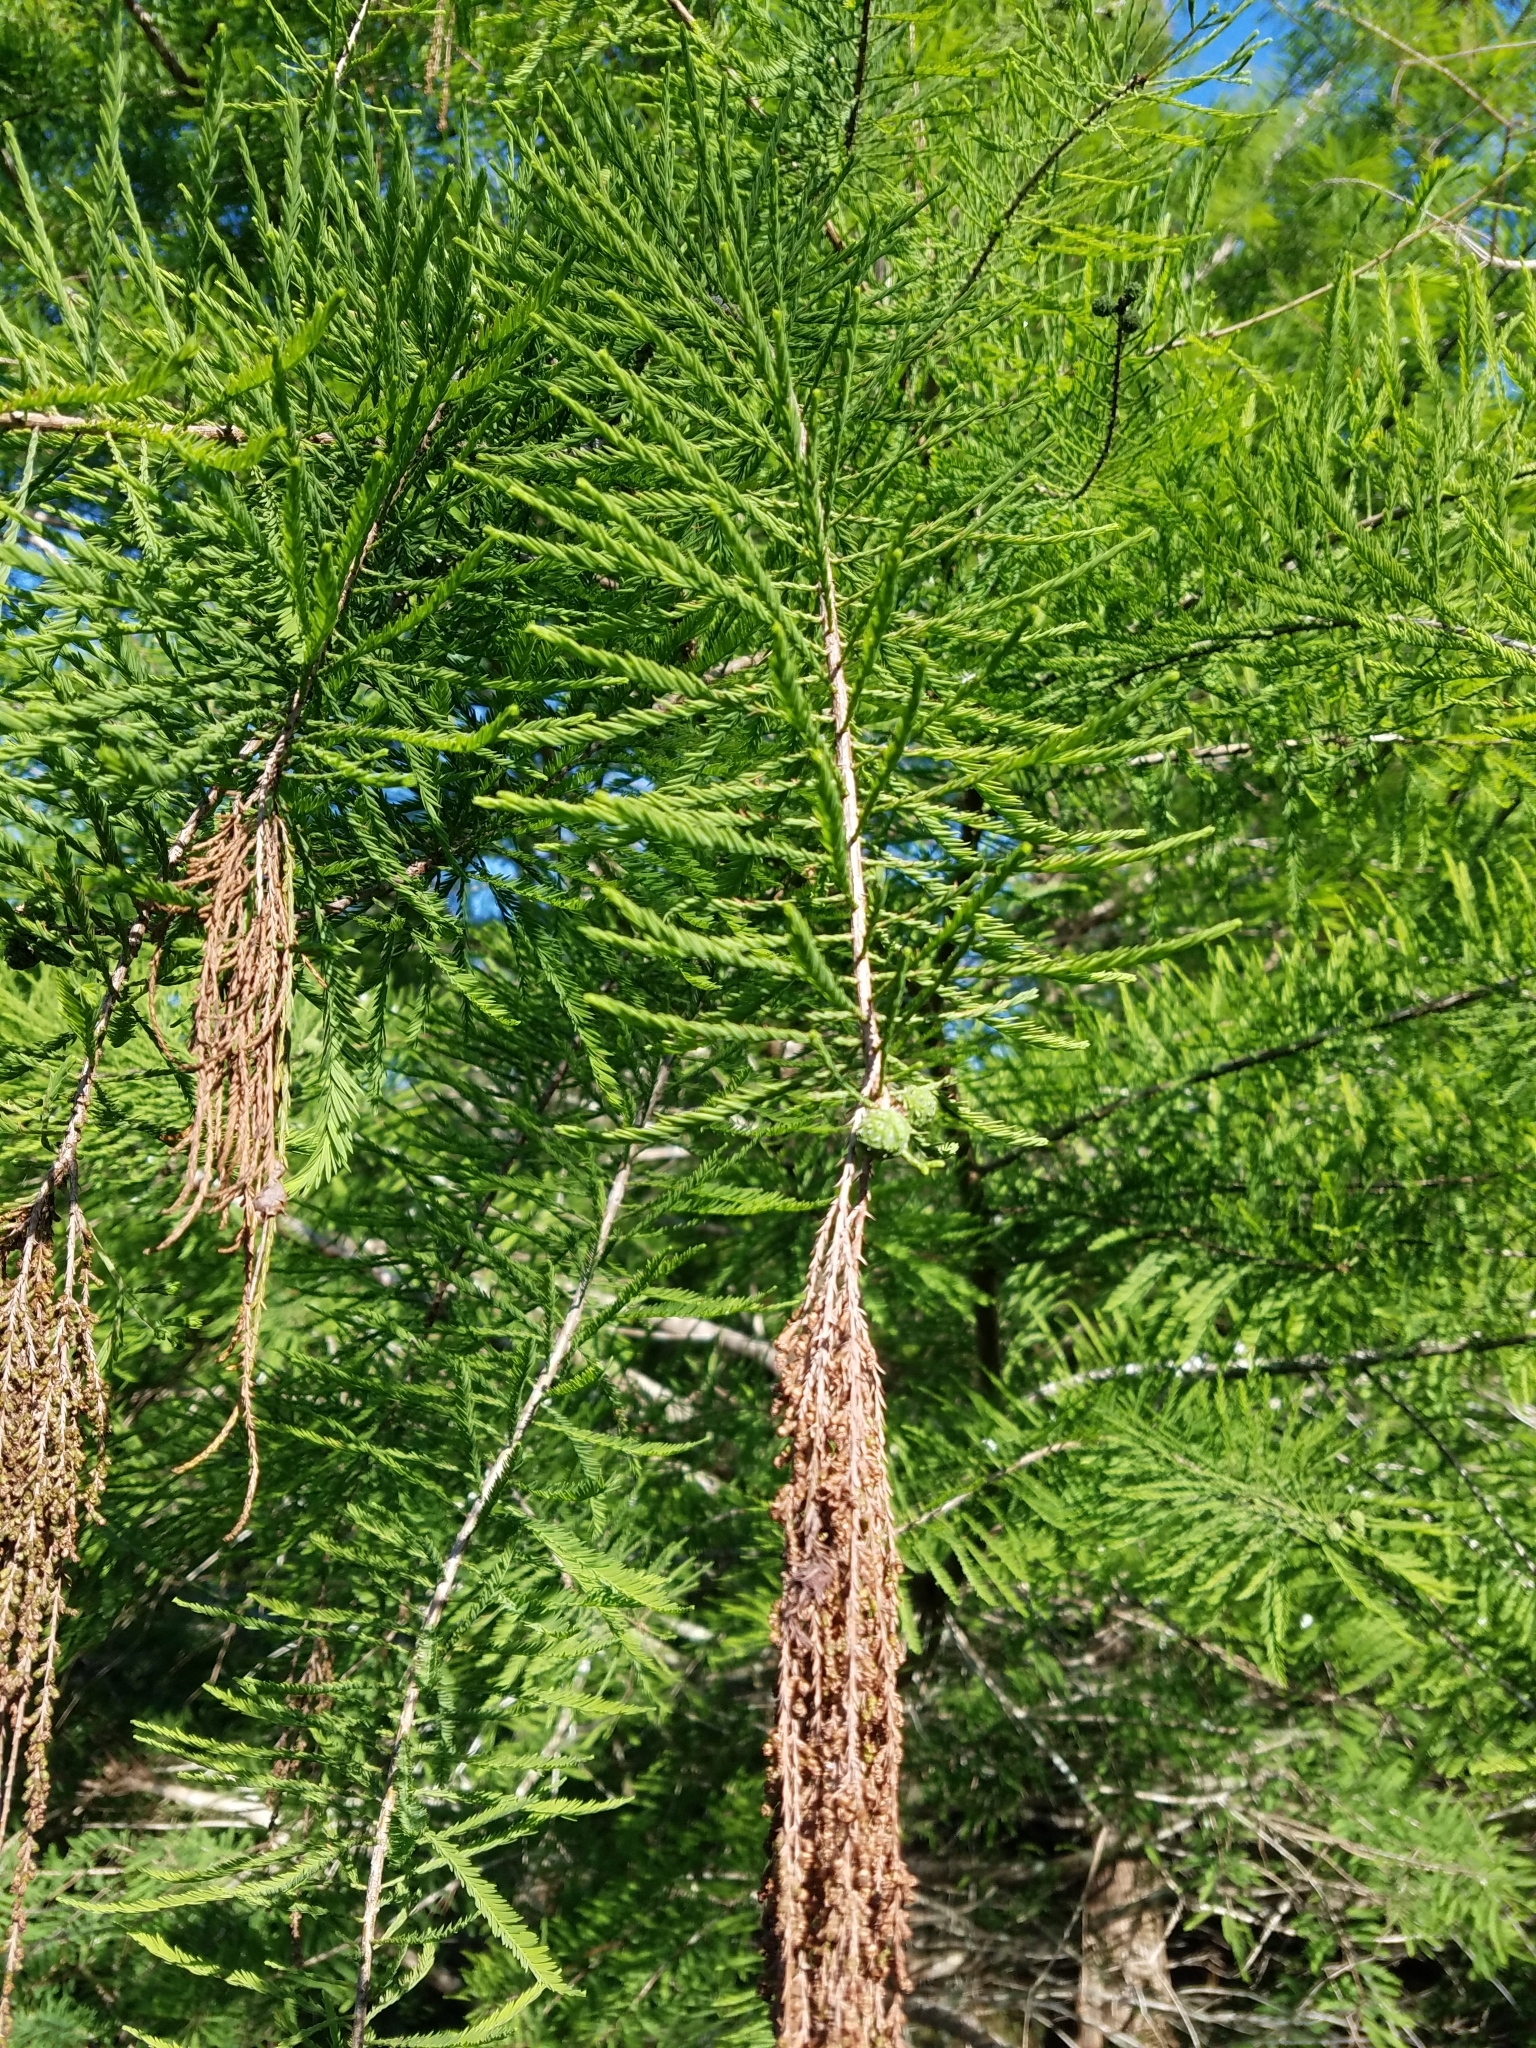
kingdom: Plantae
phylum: Tracheophyta
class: Pinopsida
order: Pinales
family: Cupressaceae
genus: Taxodium
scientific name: Taxodium distichum
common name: Bald cypress
